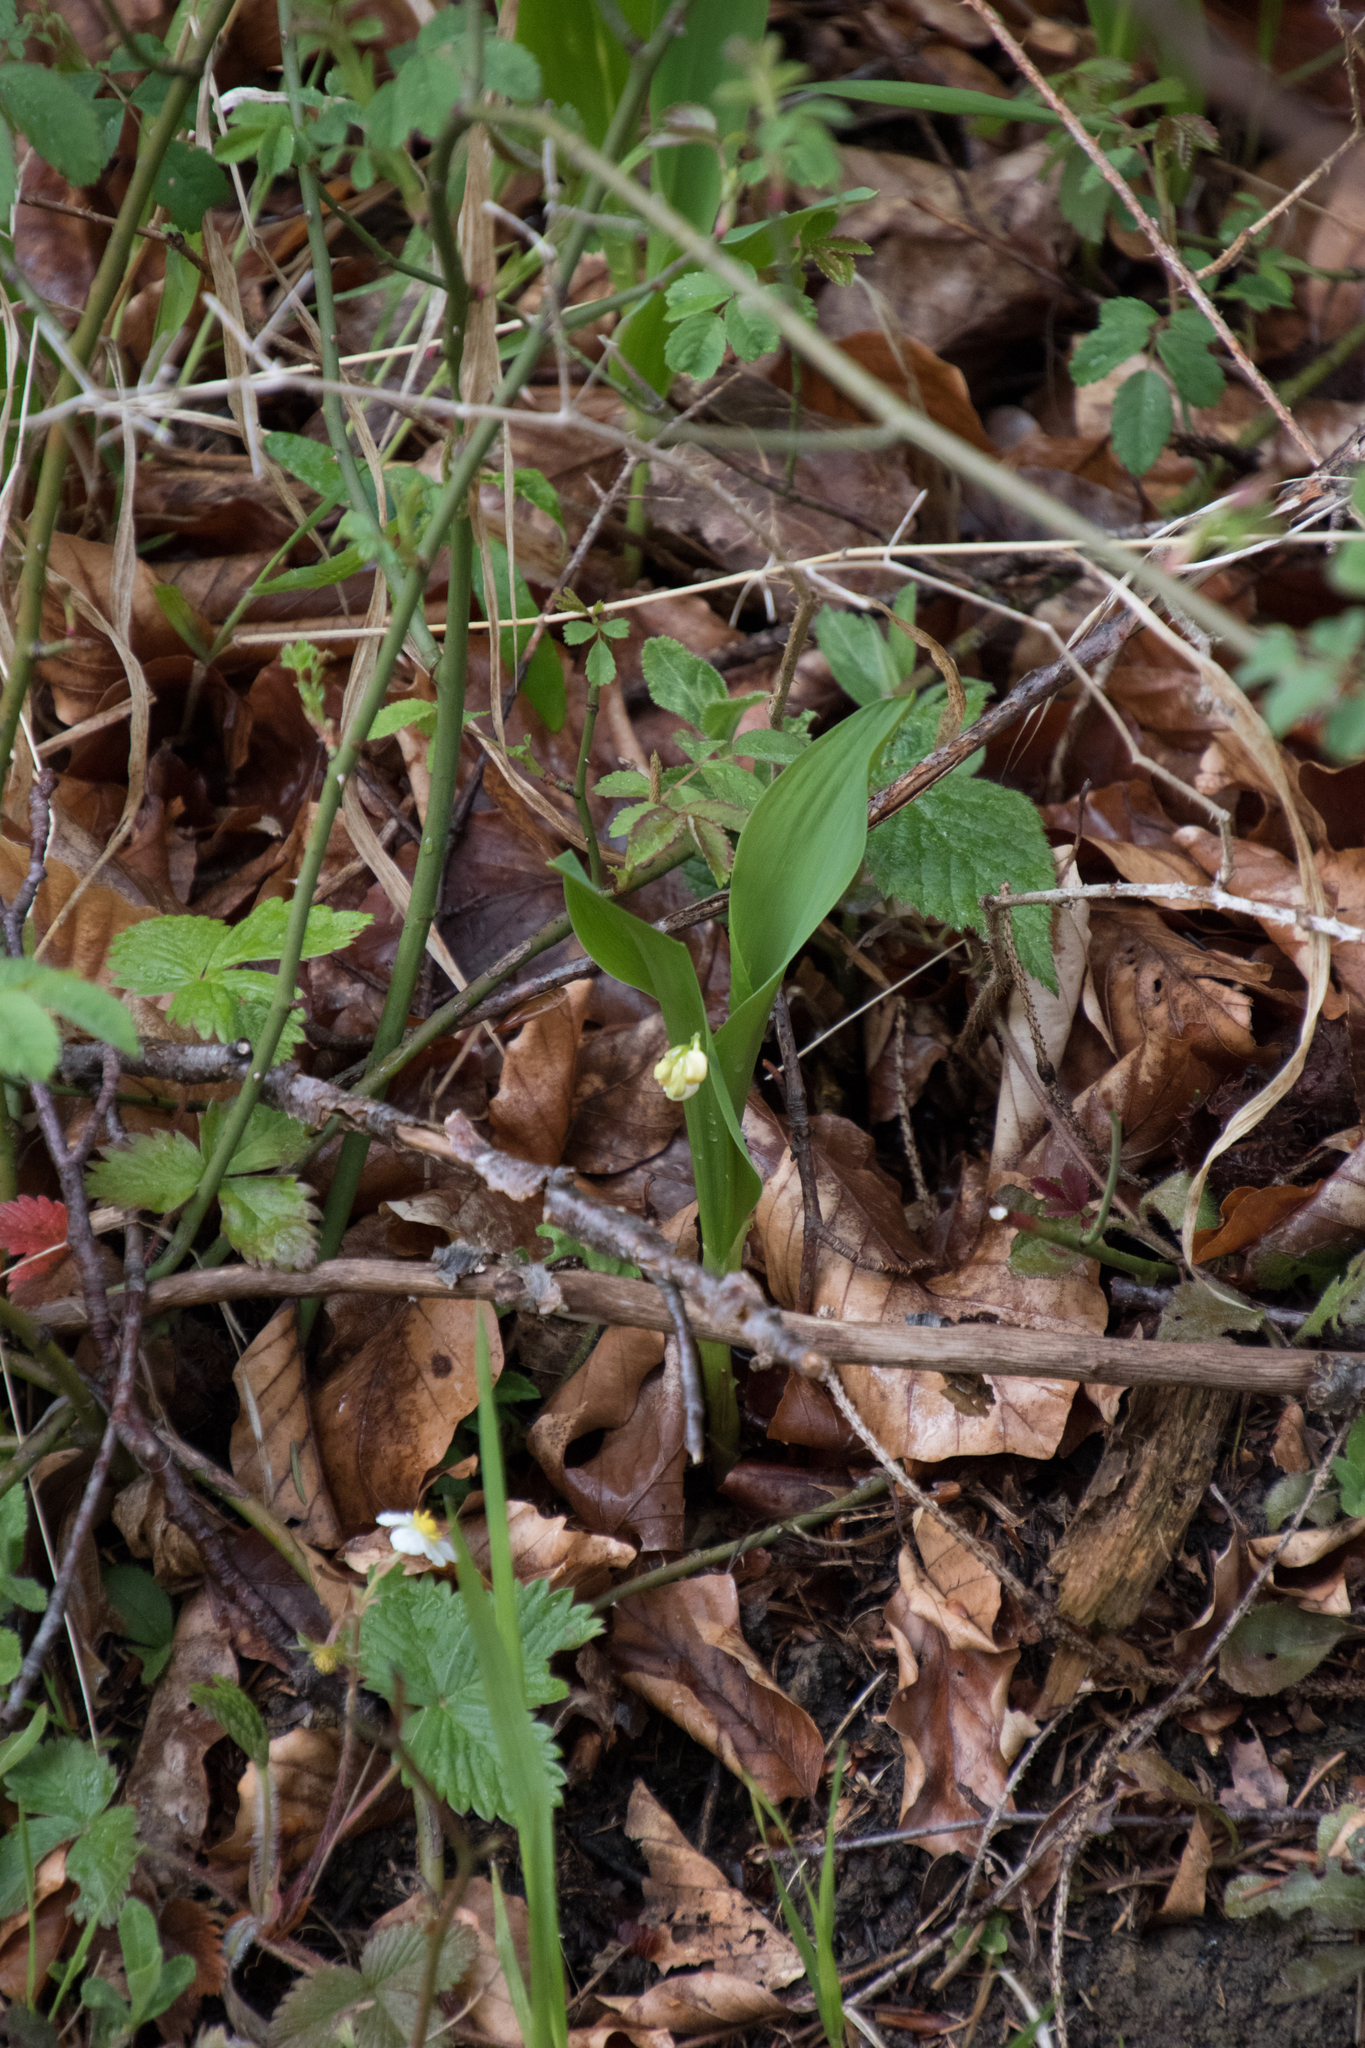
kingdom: Plantae
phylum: Tracheophyta
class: Liliopsida
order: Asparagales
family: Asparagaceae
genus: Convallaria
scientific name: Convallaria majalis
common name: Lily-of-the-valley
